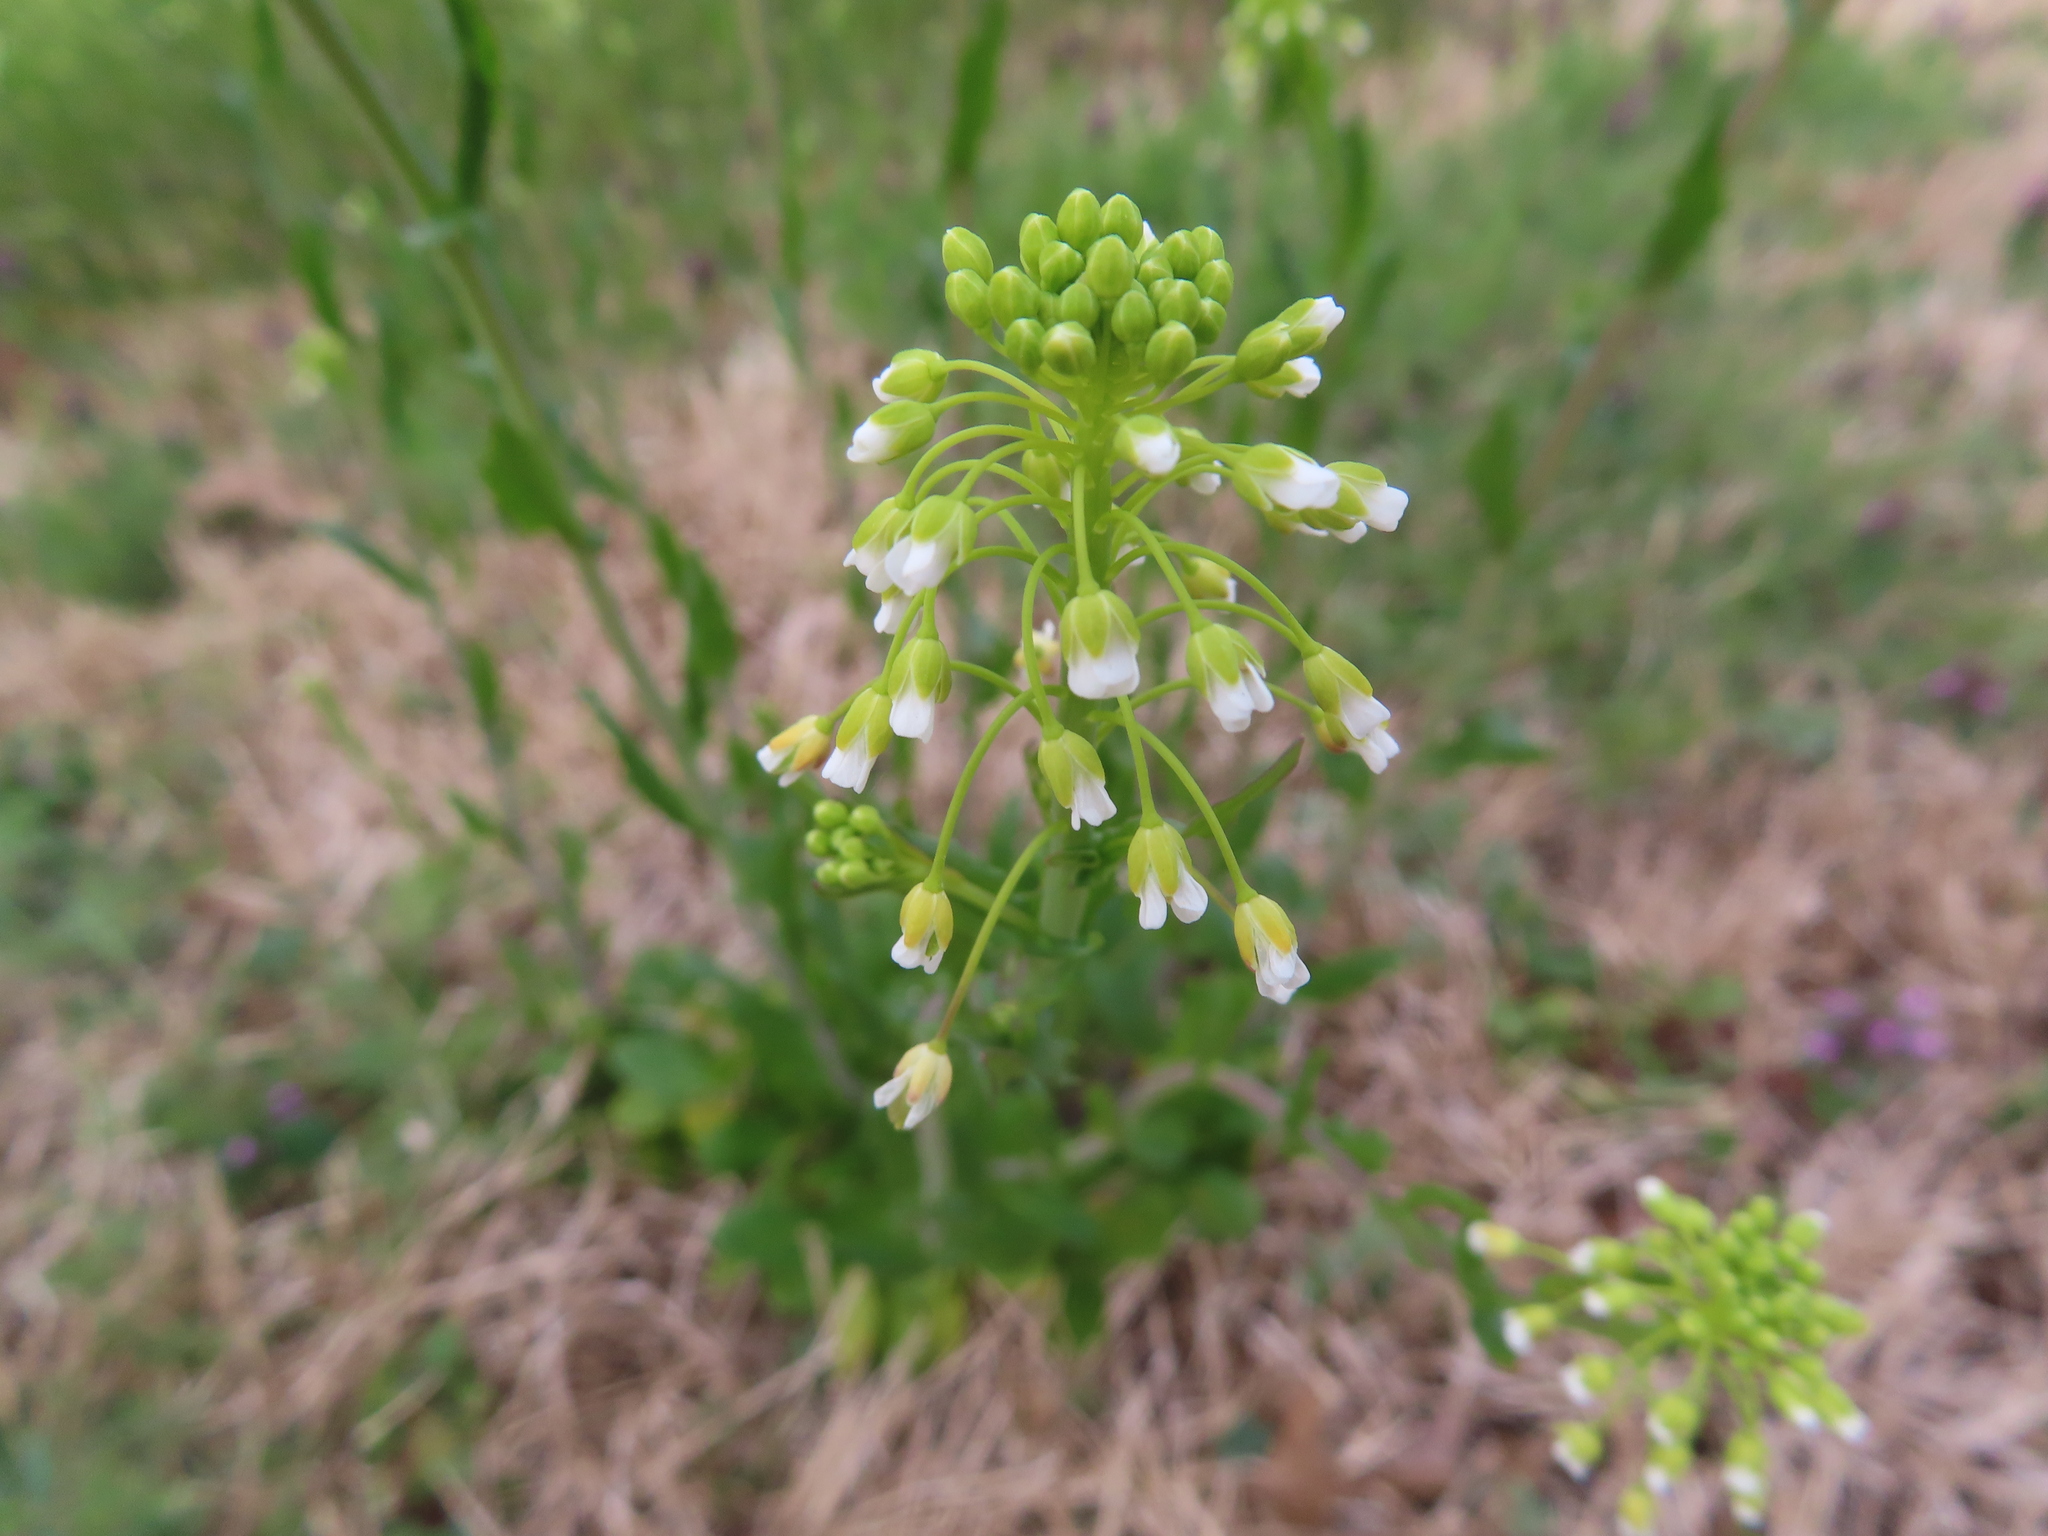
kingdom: Plantae
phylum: Tracheophyta
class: Magnoliopsida
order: Brassicales
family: Brassicaceae
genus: Mummenhoffia
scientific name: Mummenhoffia alliacea
